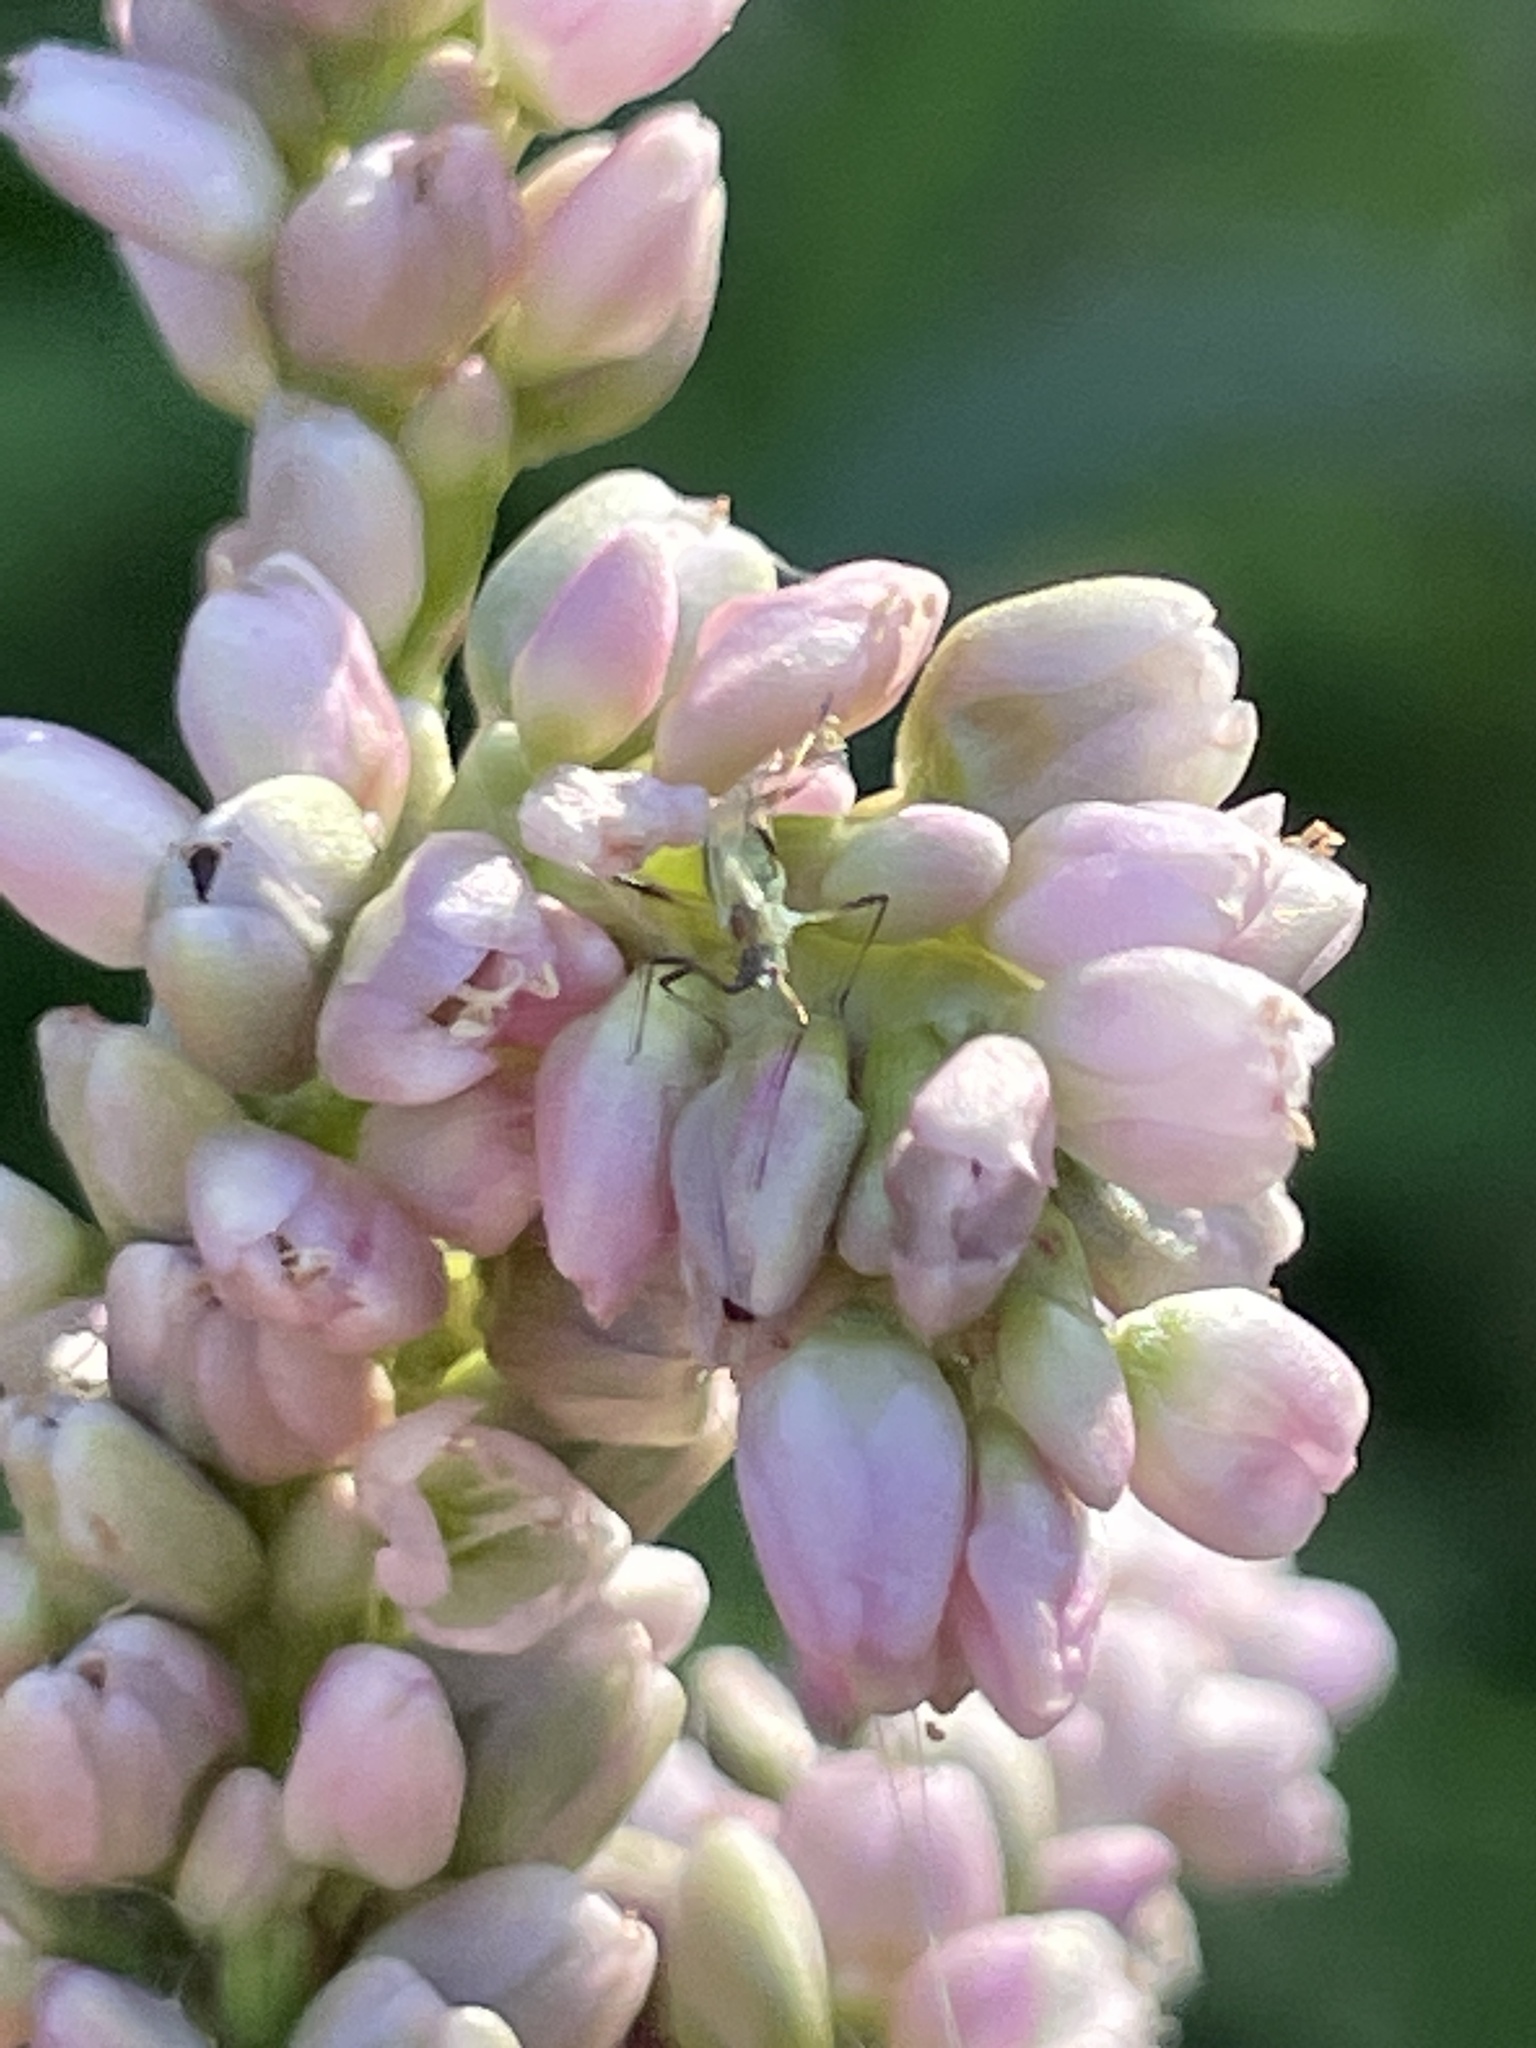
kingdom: Plantae
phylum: Tracheophyta
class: Magnoliopsida
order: Caryophyllales
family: Polygonaceae
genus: Persicaria
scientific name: Persicaria pensylvanica
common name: Pinkweed
